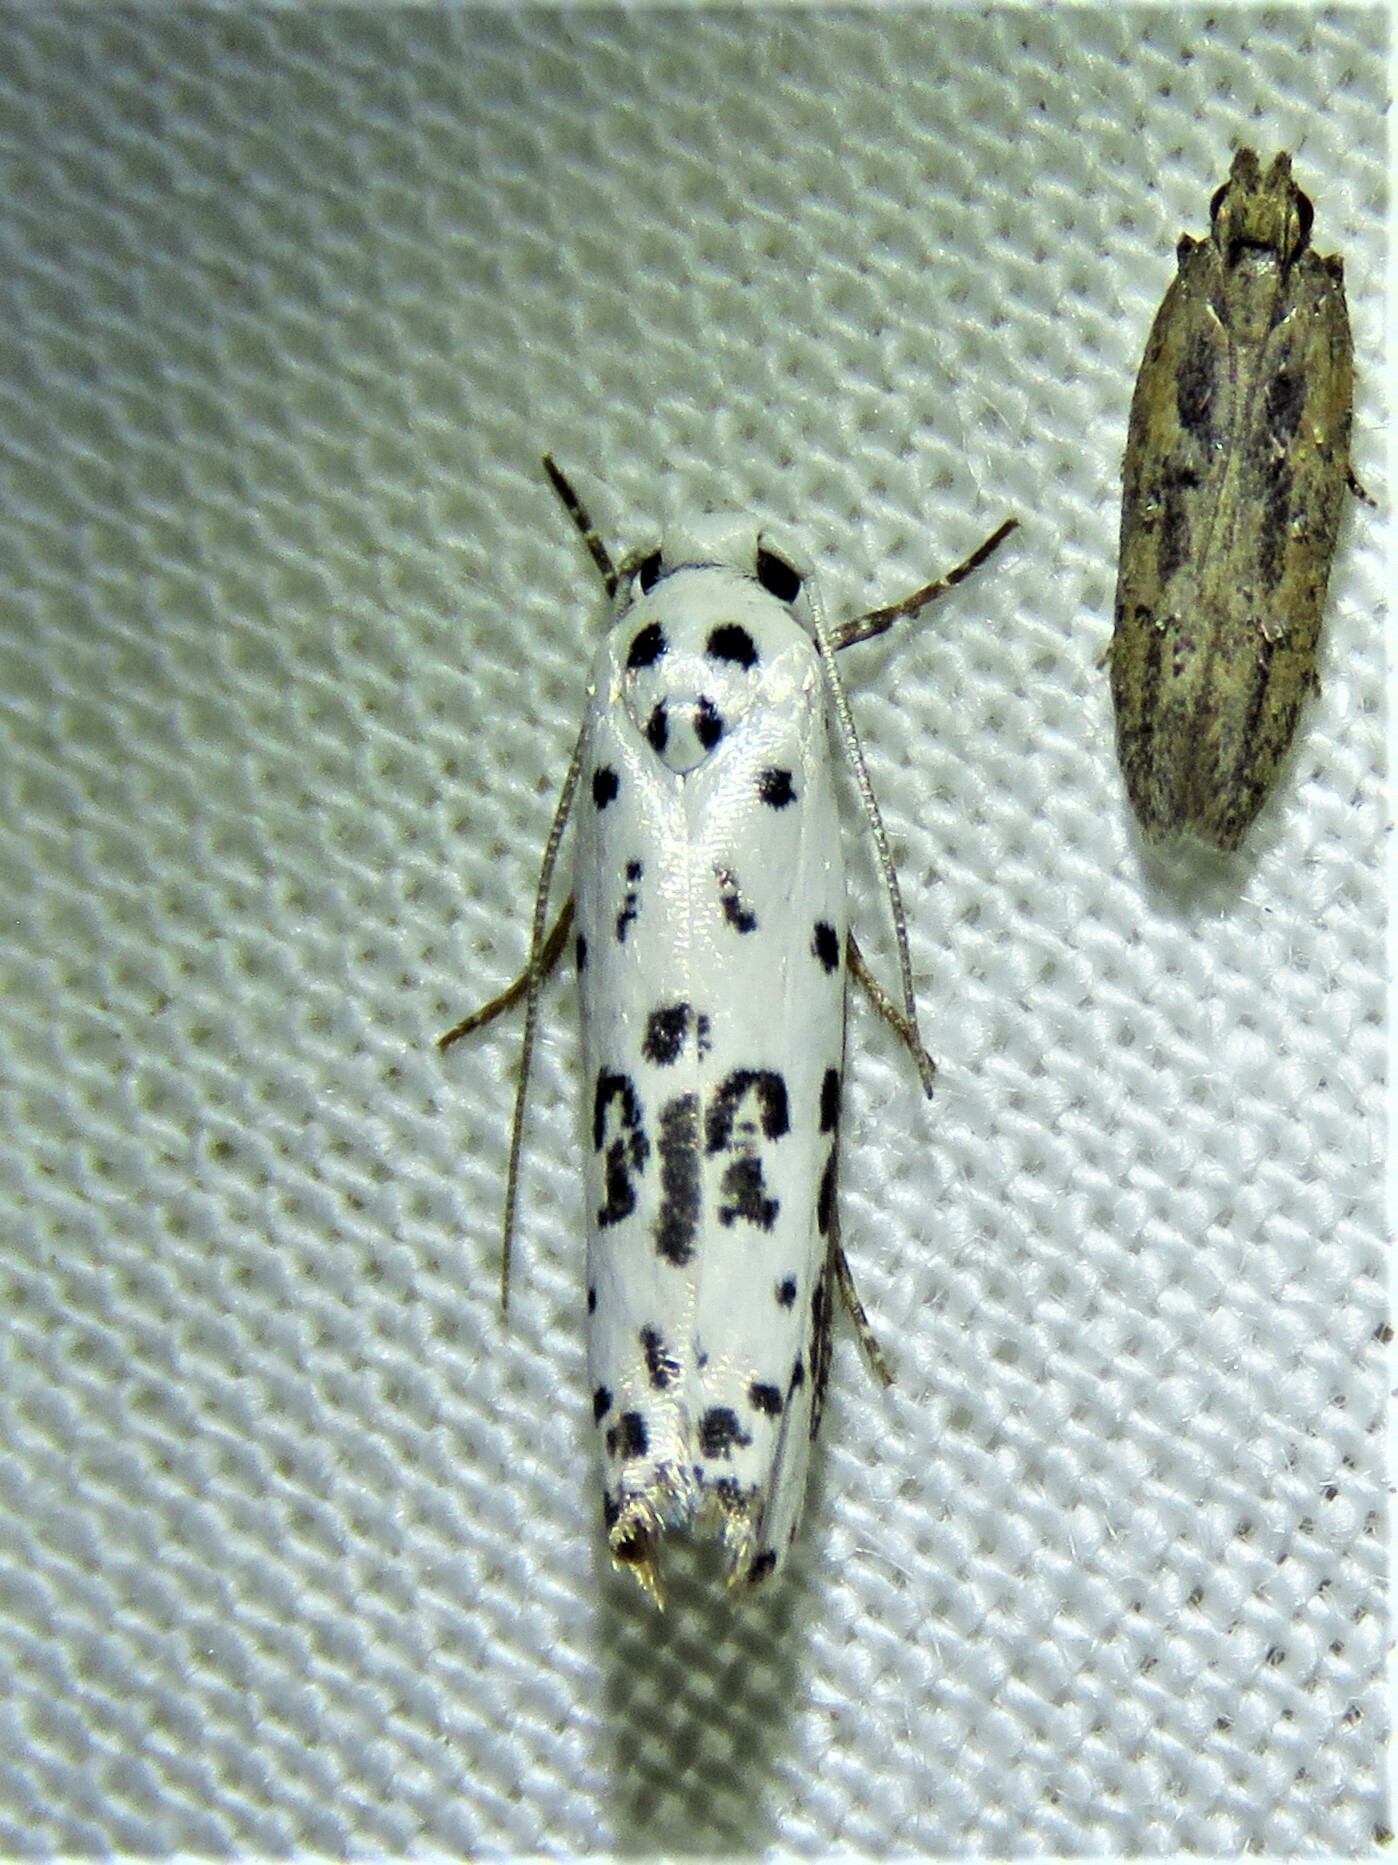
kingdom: Animalia
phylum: Arthropoda
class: Insecta
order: Lepidoptera
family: Ethmiidae
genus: Ethmia
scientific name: Ethmia bittenella
